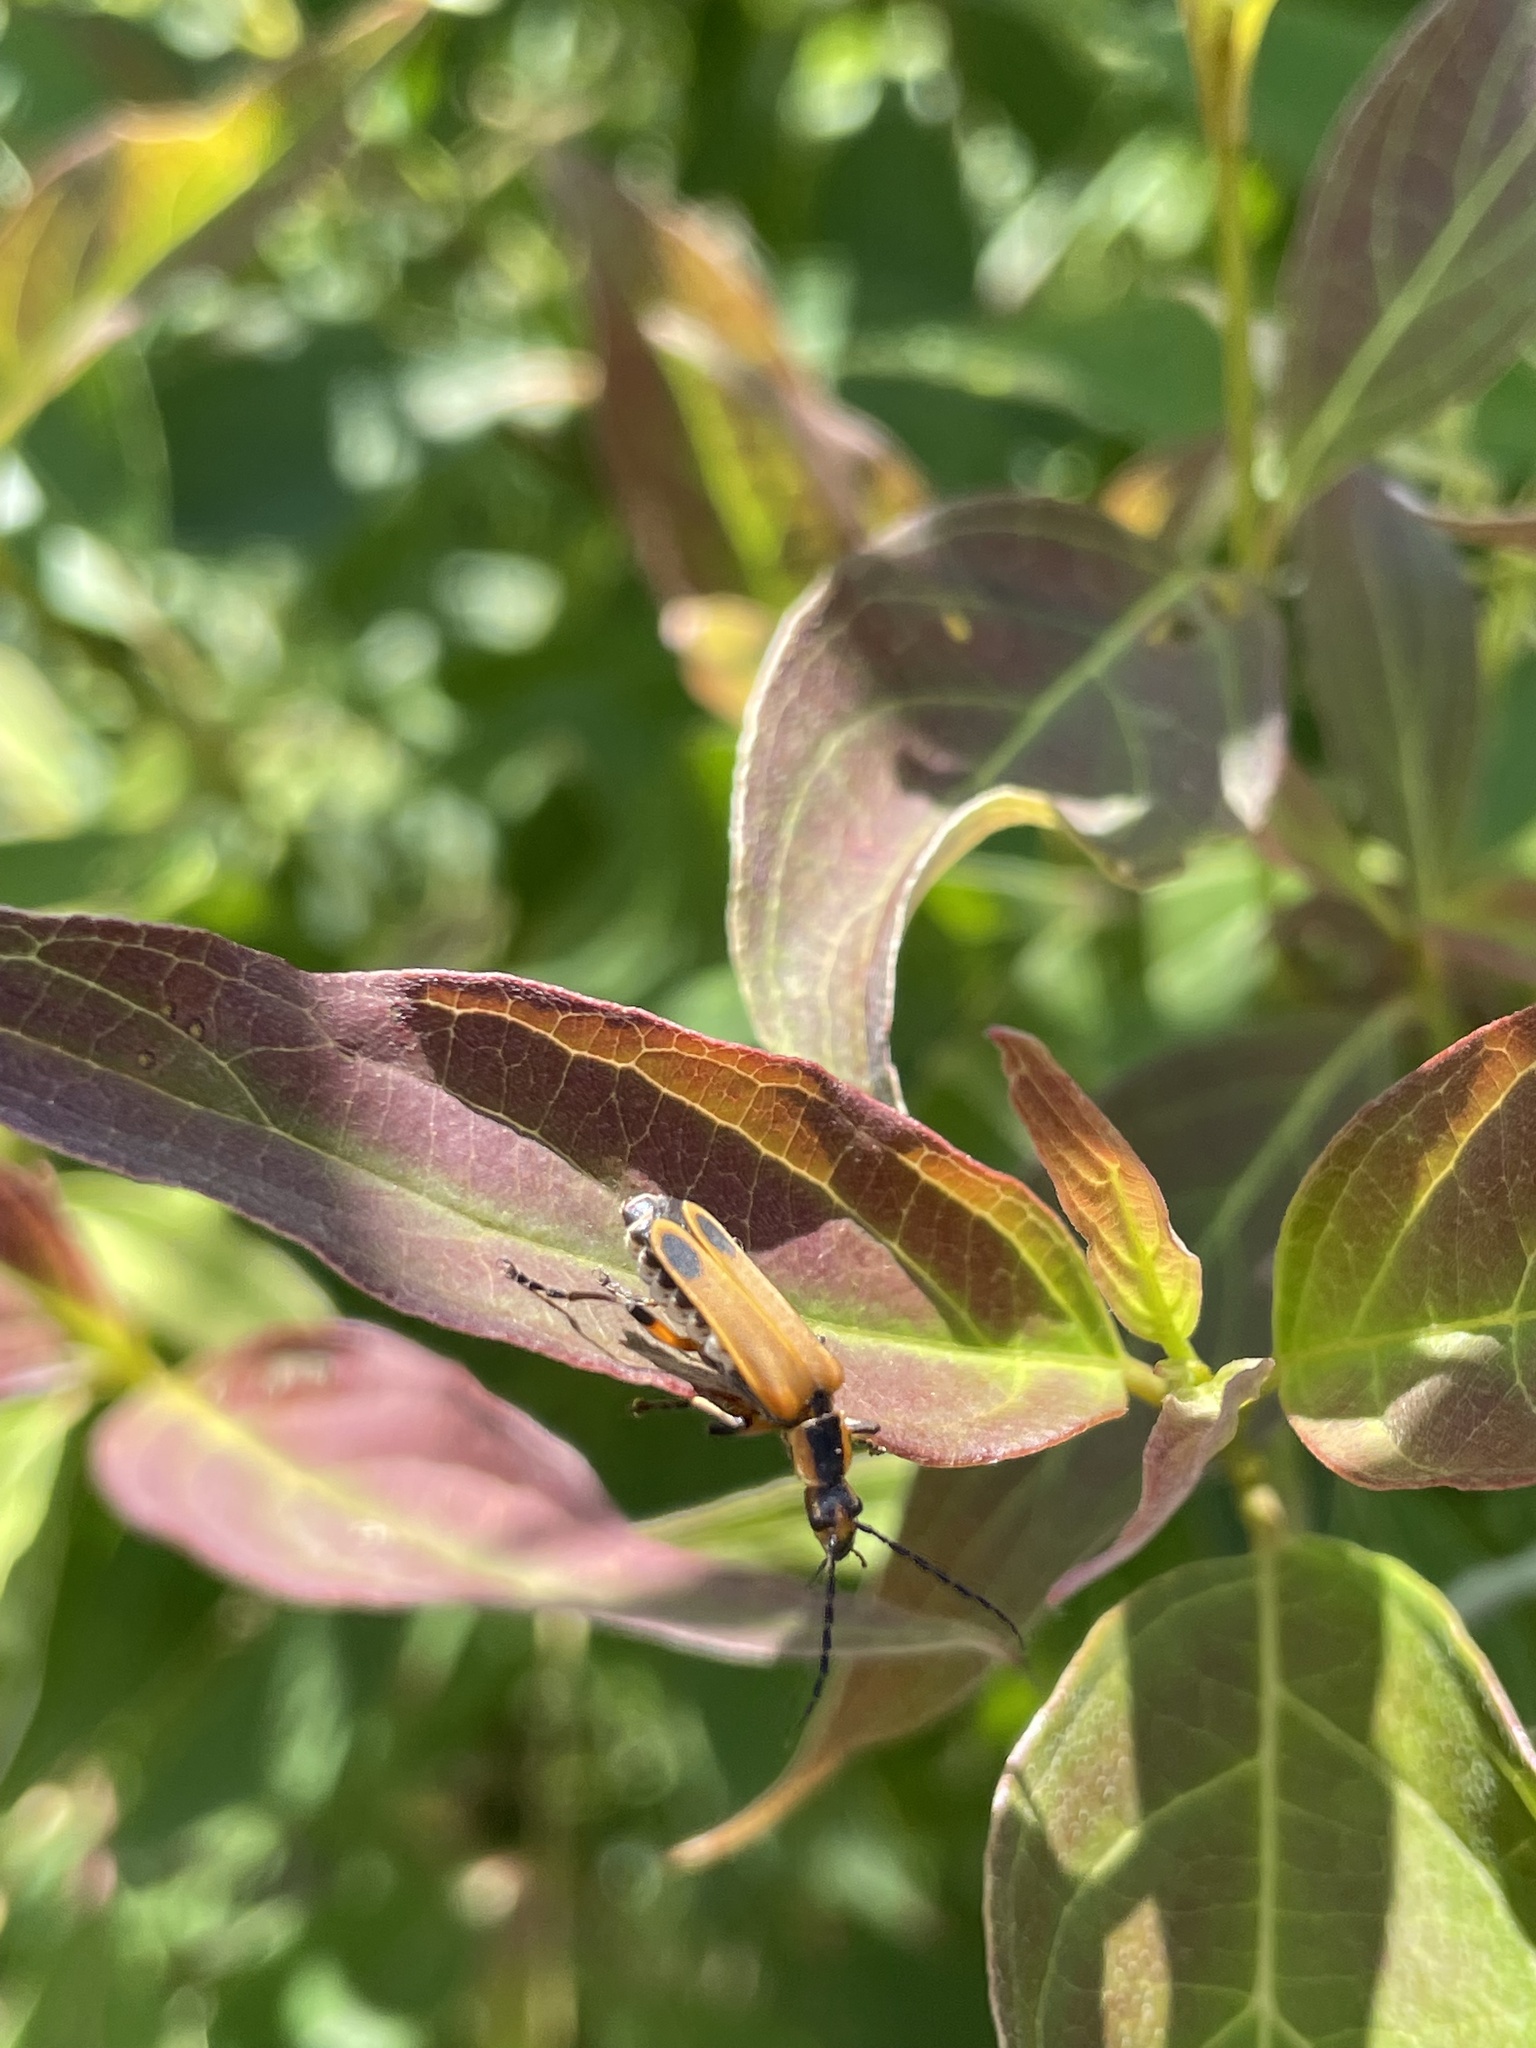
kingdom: Plantae
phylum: Tracheophyta
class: Magnoliopsida
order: Cornales
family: Cornaceae
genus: Cornus
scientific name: Cornus amomum
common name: Silky dogwood
